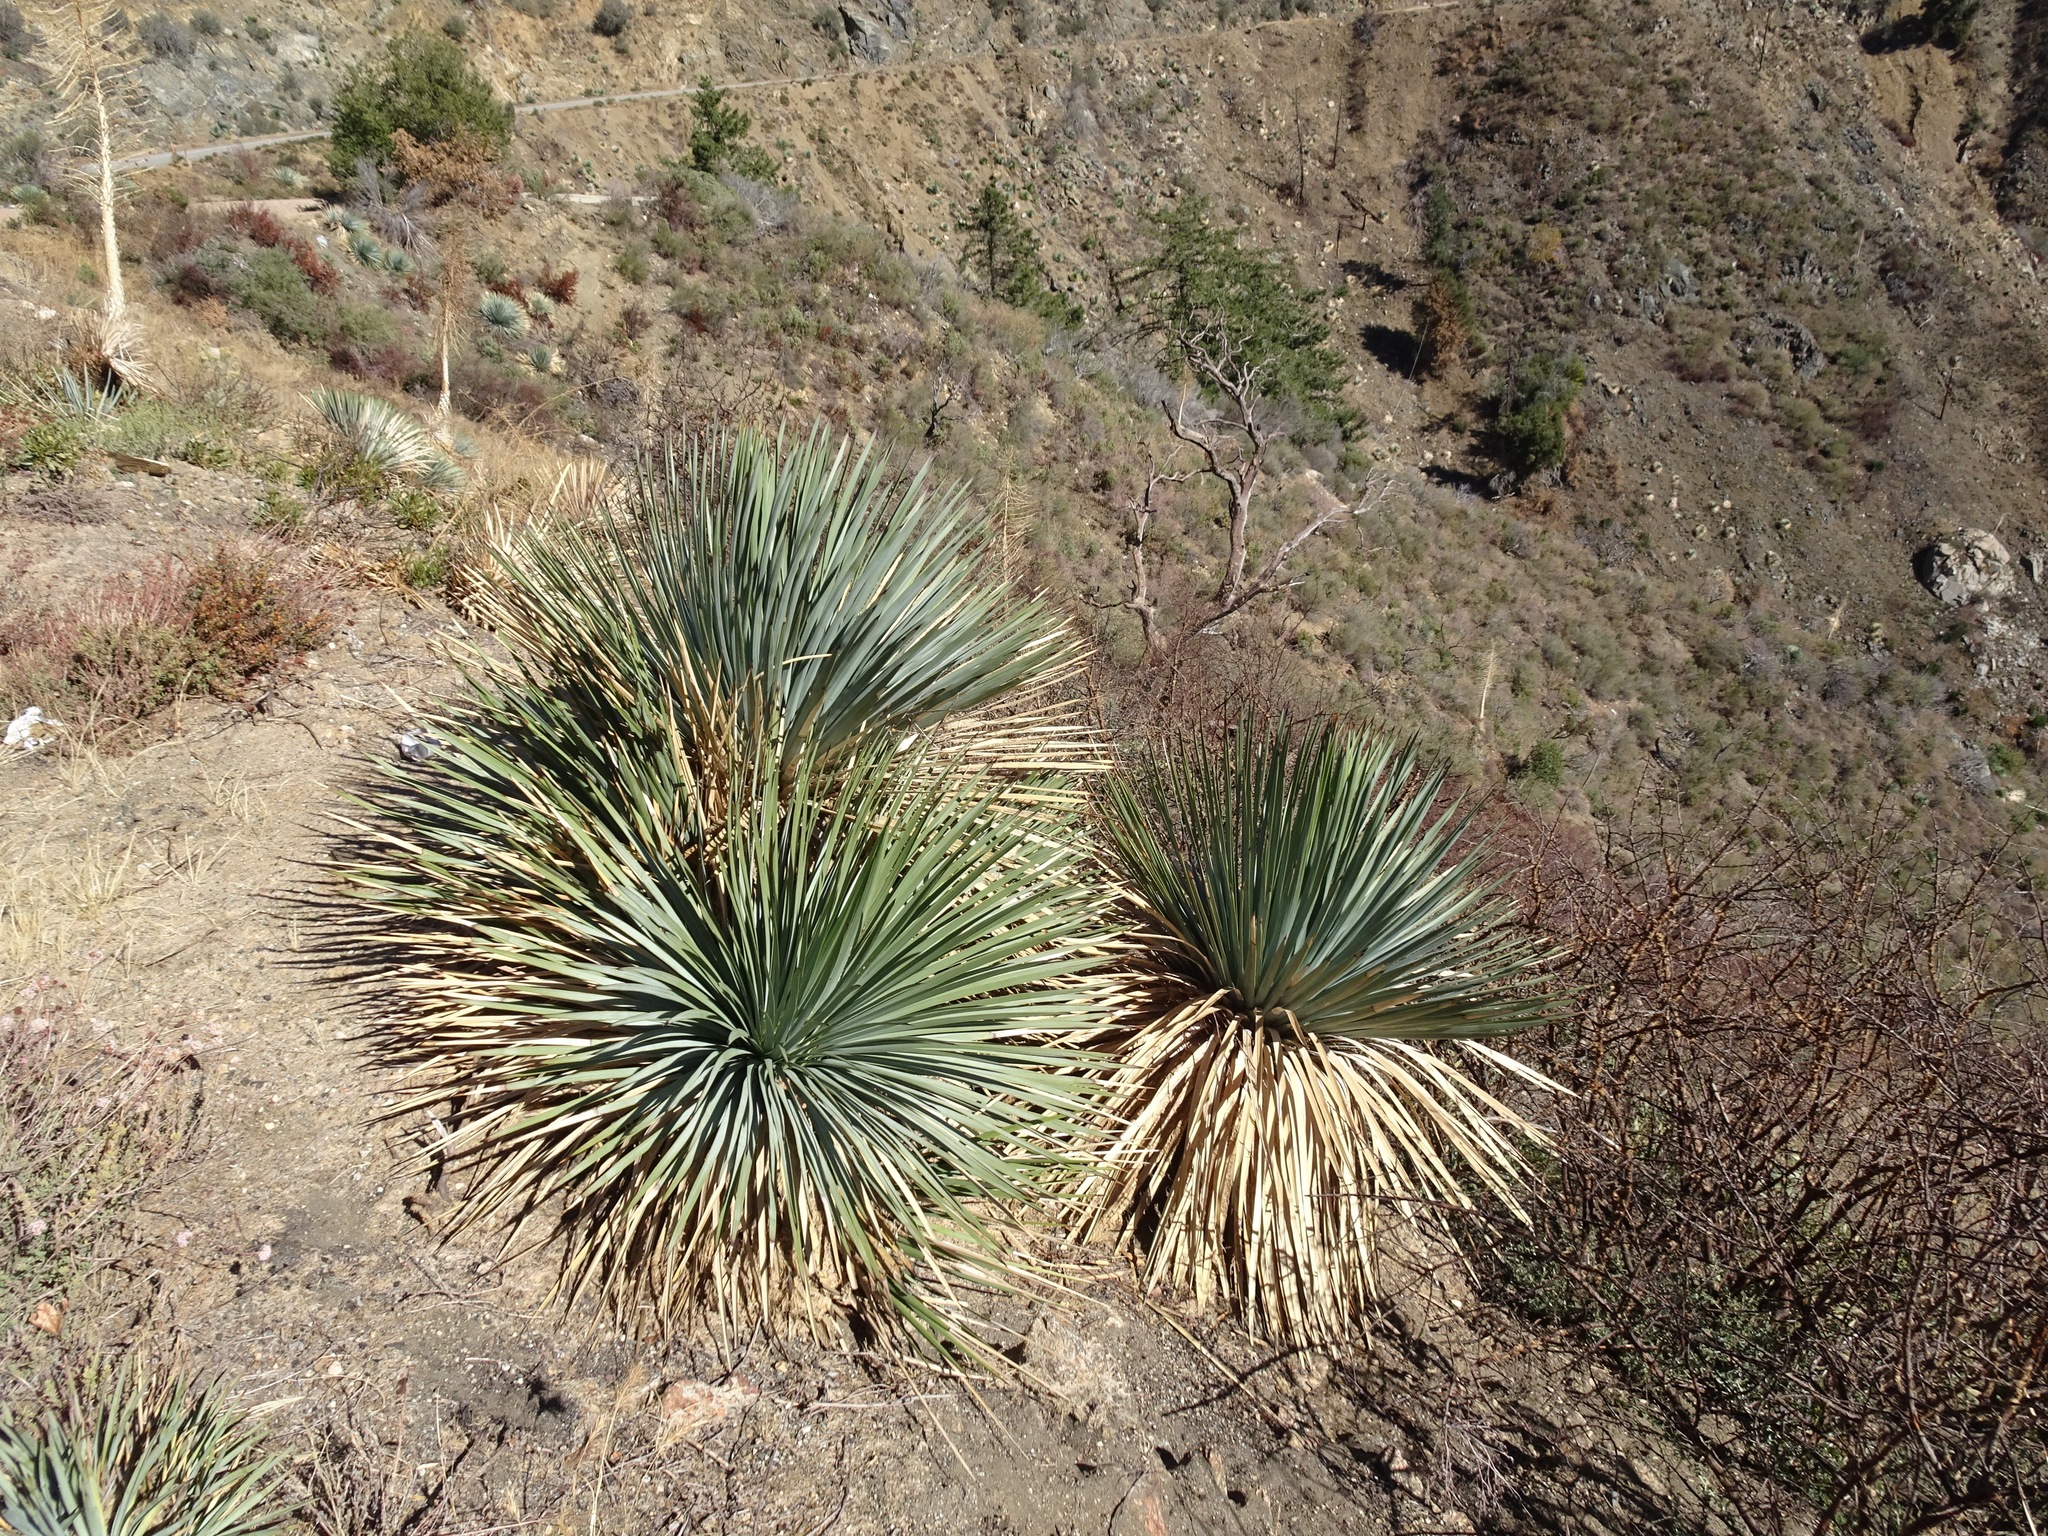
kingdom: Plantae
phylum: Tracheophyta
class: Liliopsida
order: Asparagales
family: Asparagaceae
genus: Hesperoyucca
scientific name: Hesperoyucca whipplei
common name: Our lord's-candle
